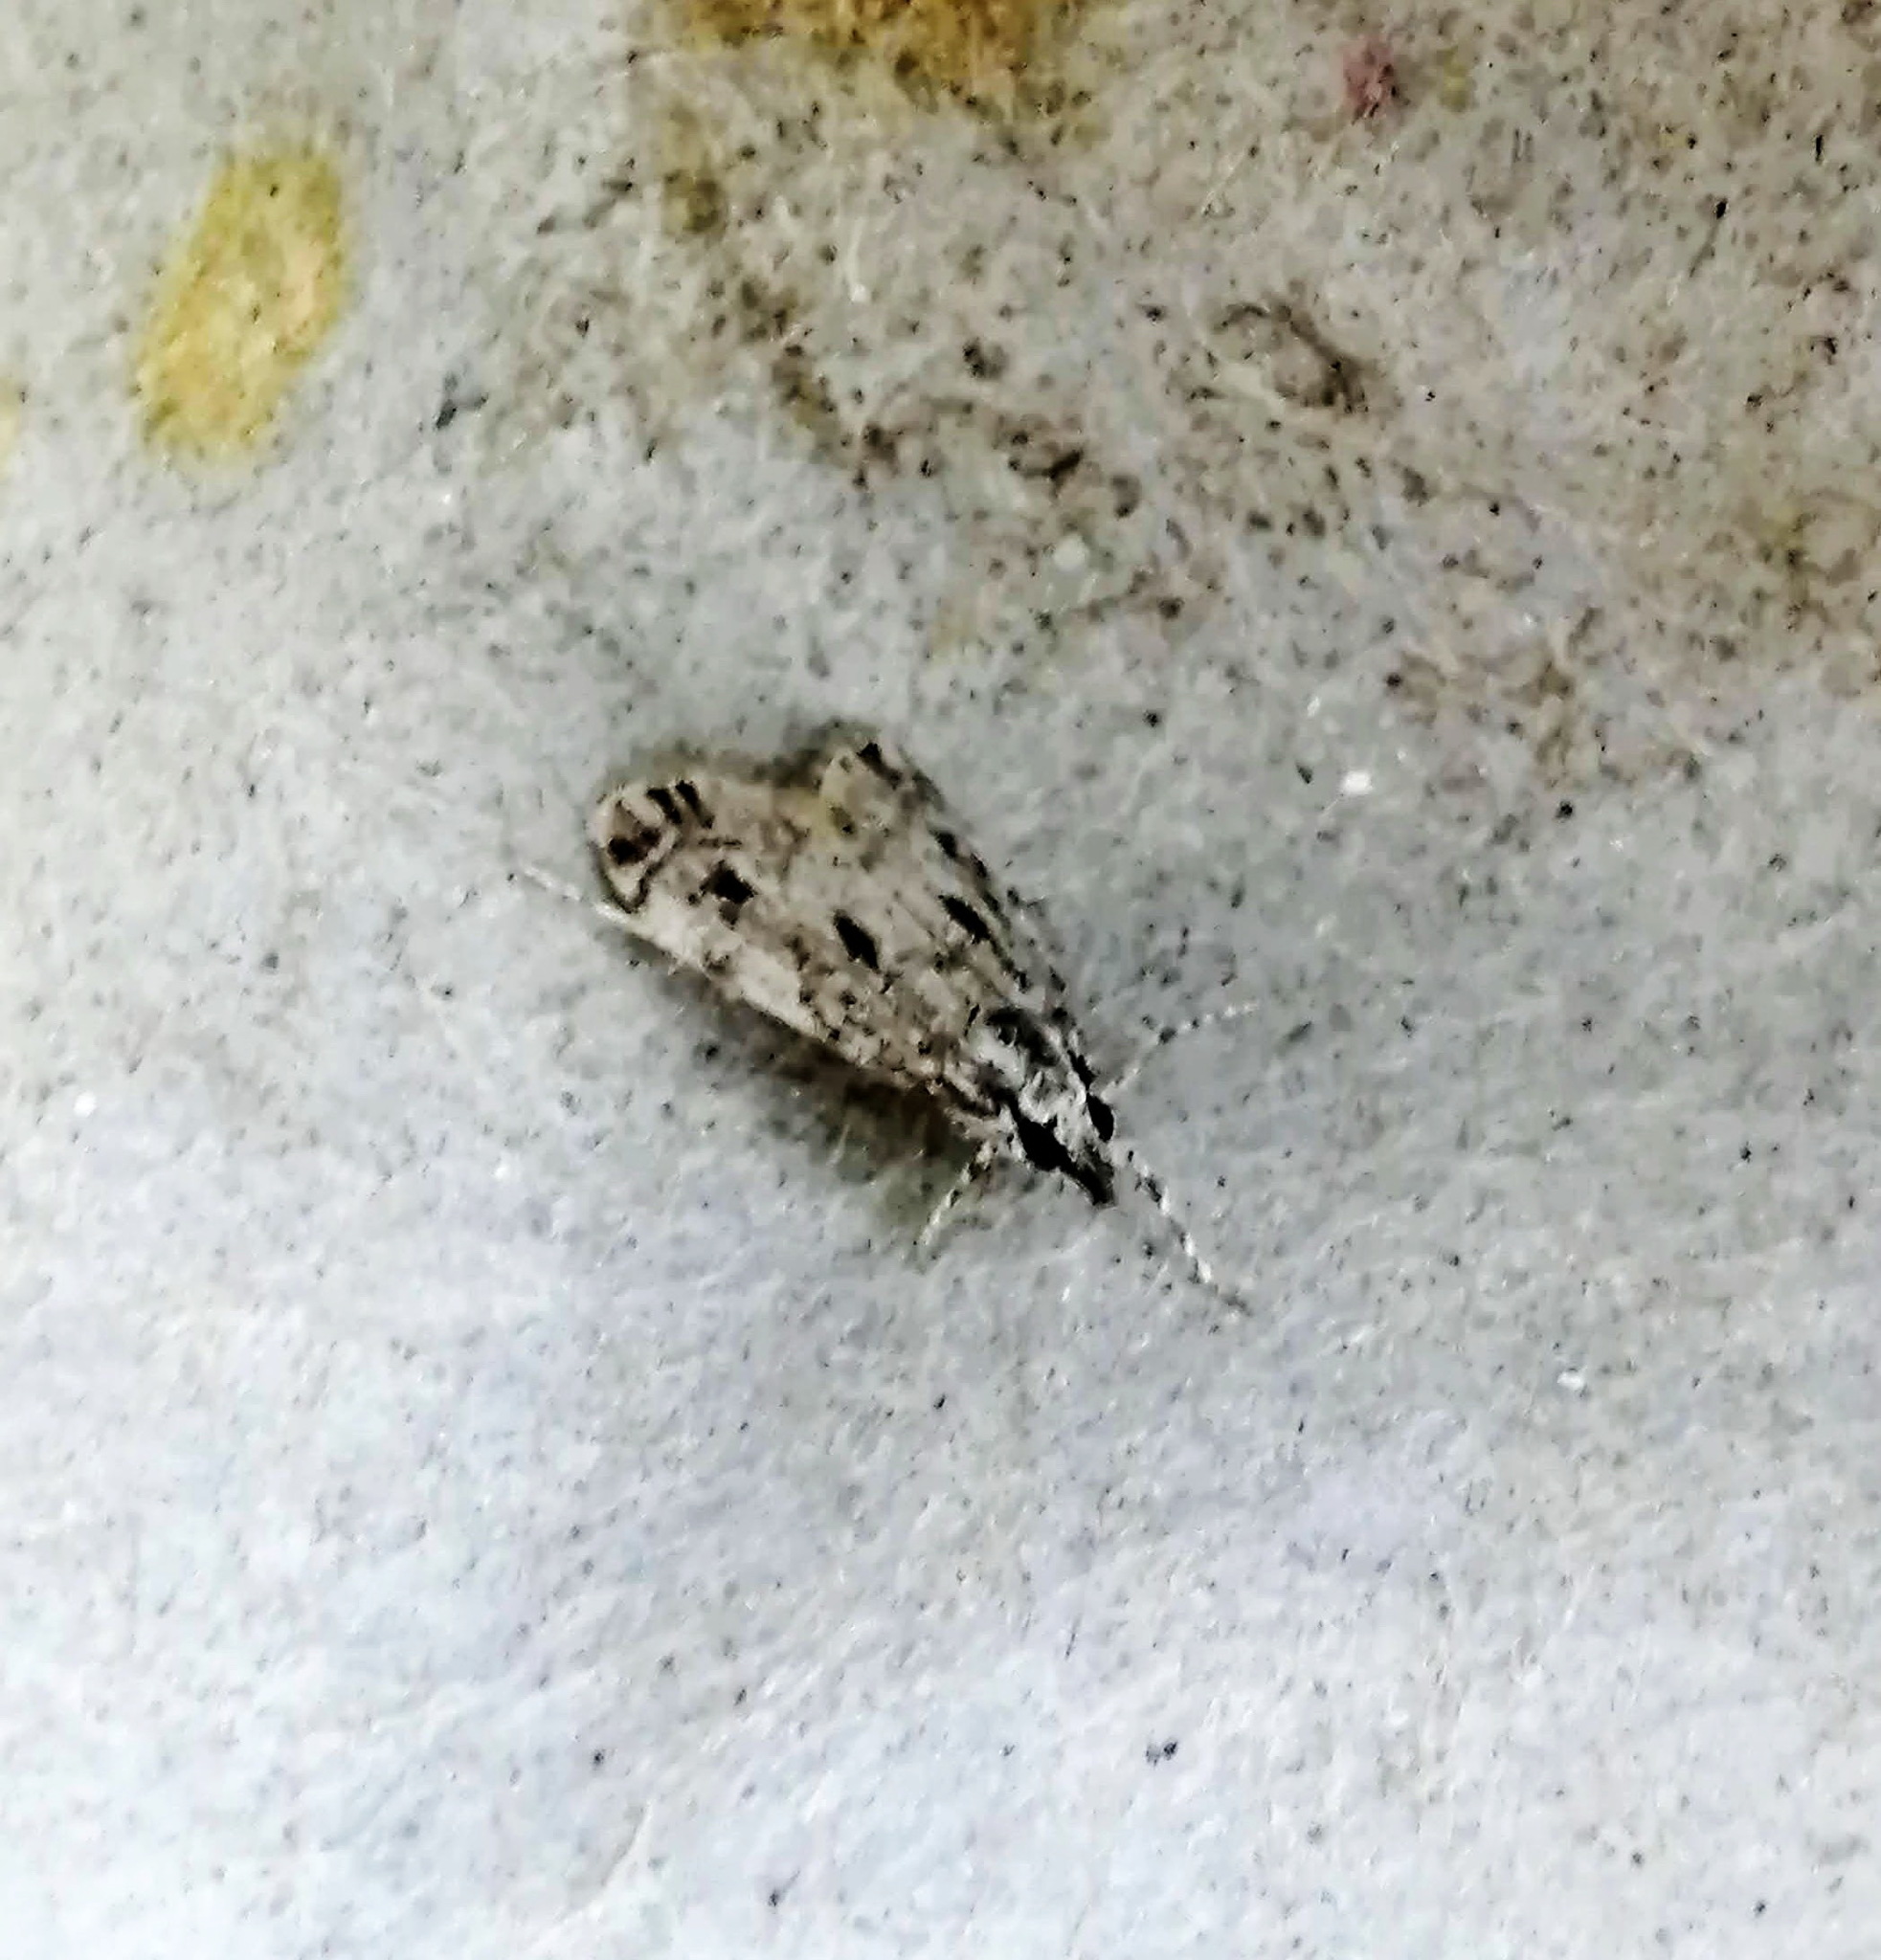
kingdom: Animalia
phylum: Arthropoda
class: Insecta
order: Lepidoptera
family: Crambidae
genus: Eudonia
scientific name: Eudonia strigalis
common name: Striped eudonia moth
